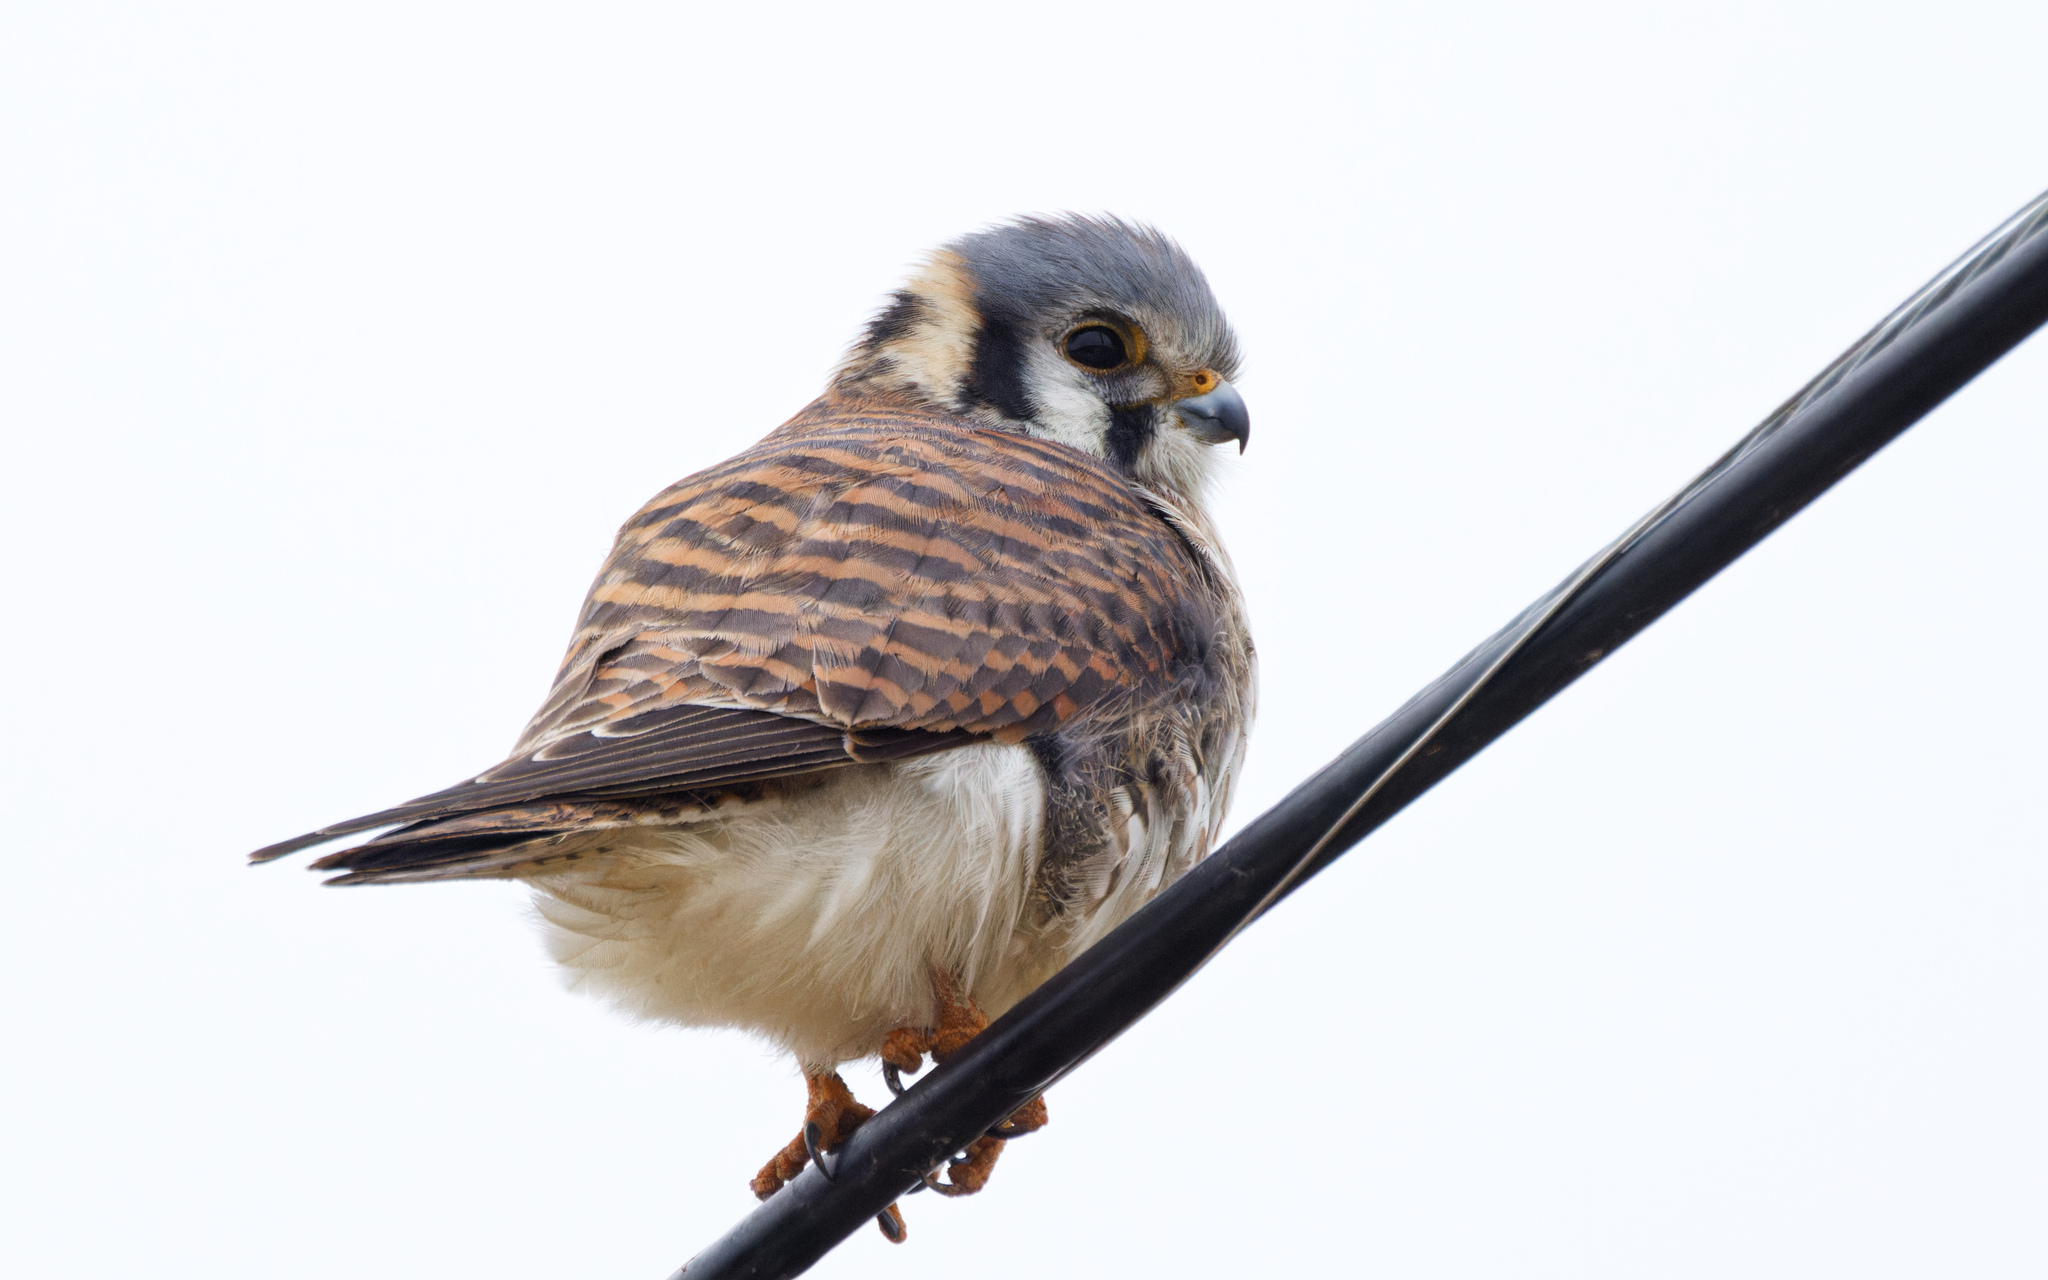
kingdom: Animalia
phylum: Chordata
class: Aves
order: Falconiformes
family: Falconidae
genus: Falco
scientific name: Falco sparverius
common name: American kestrel
